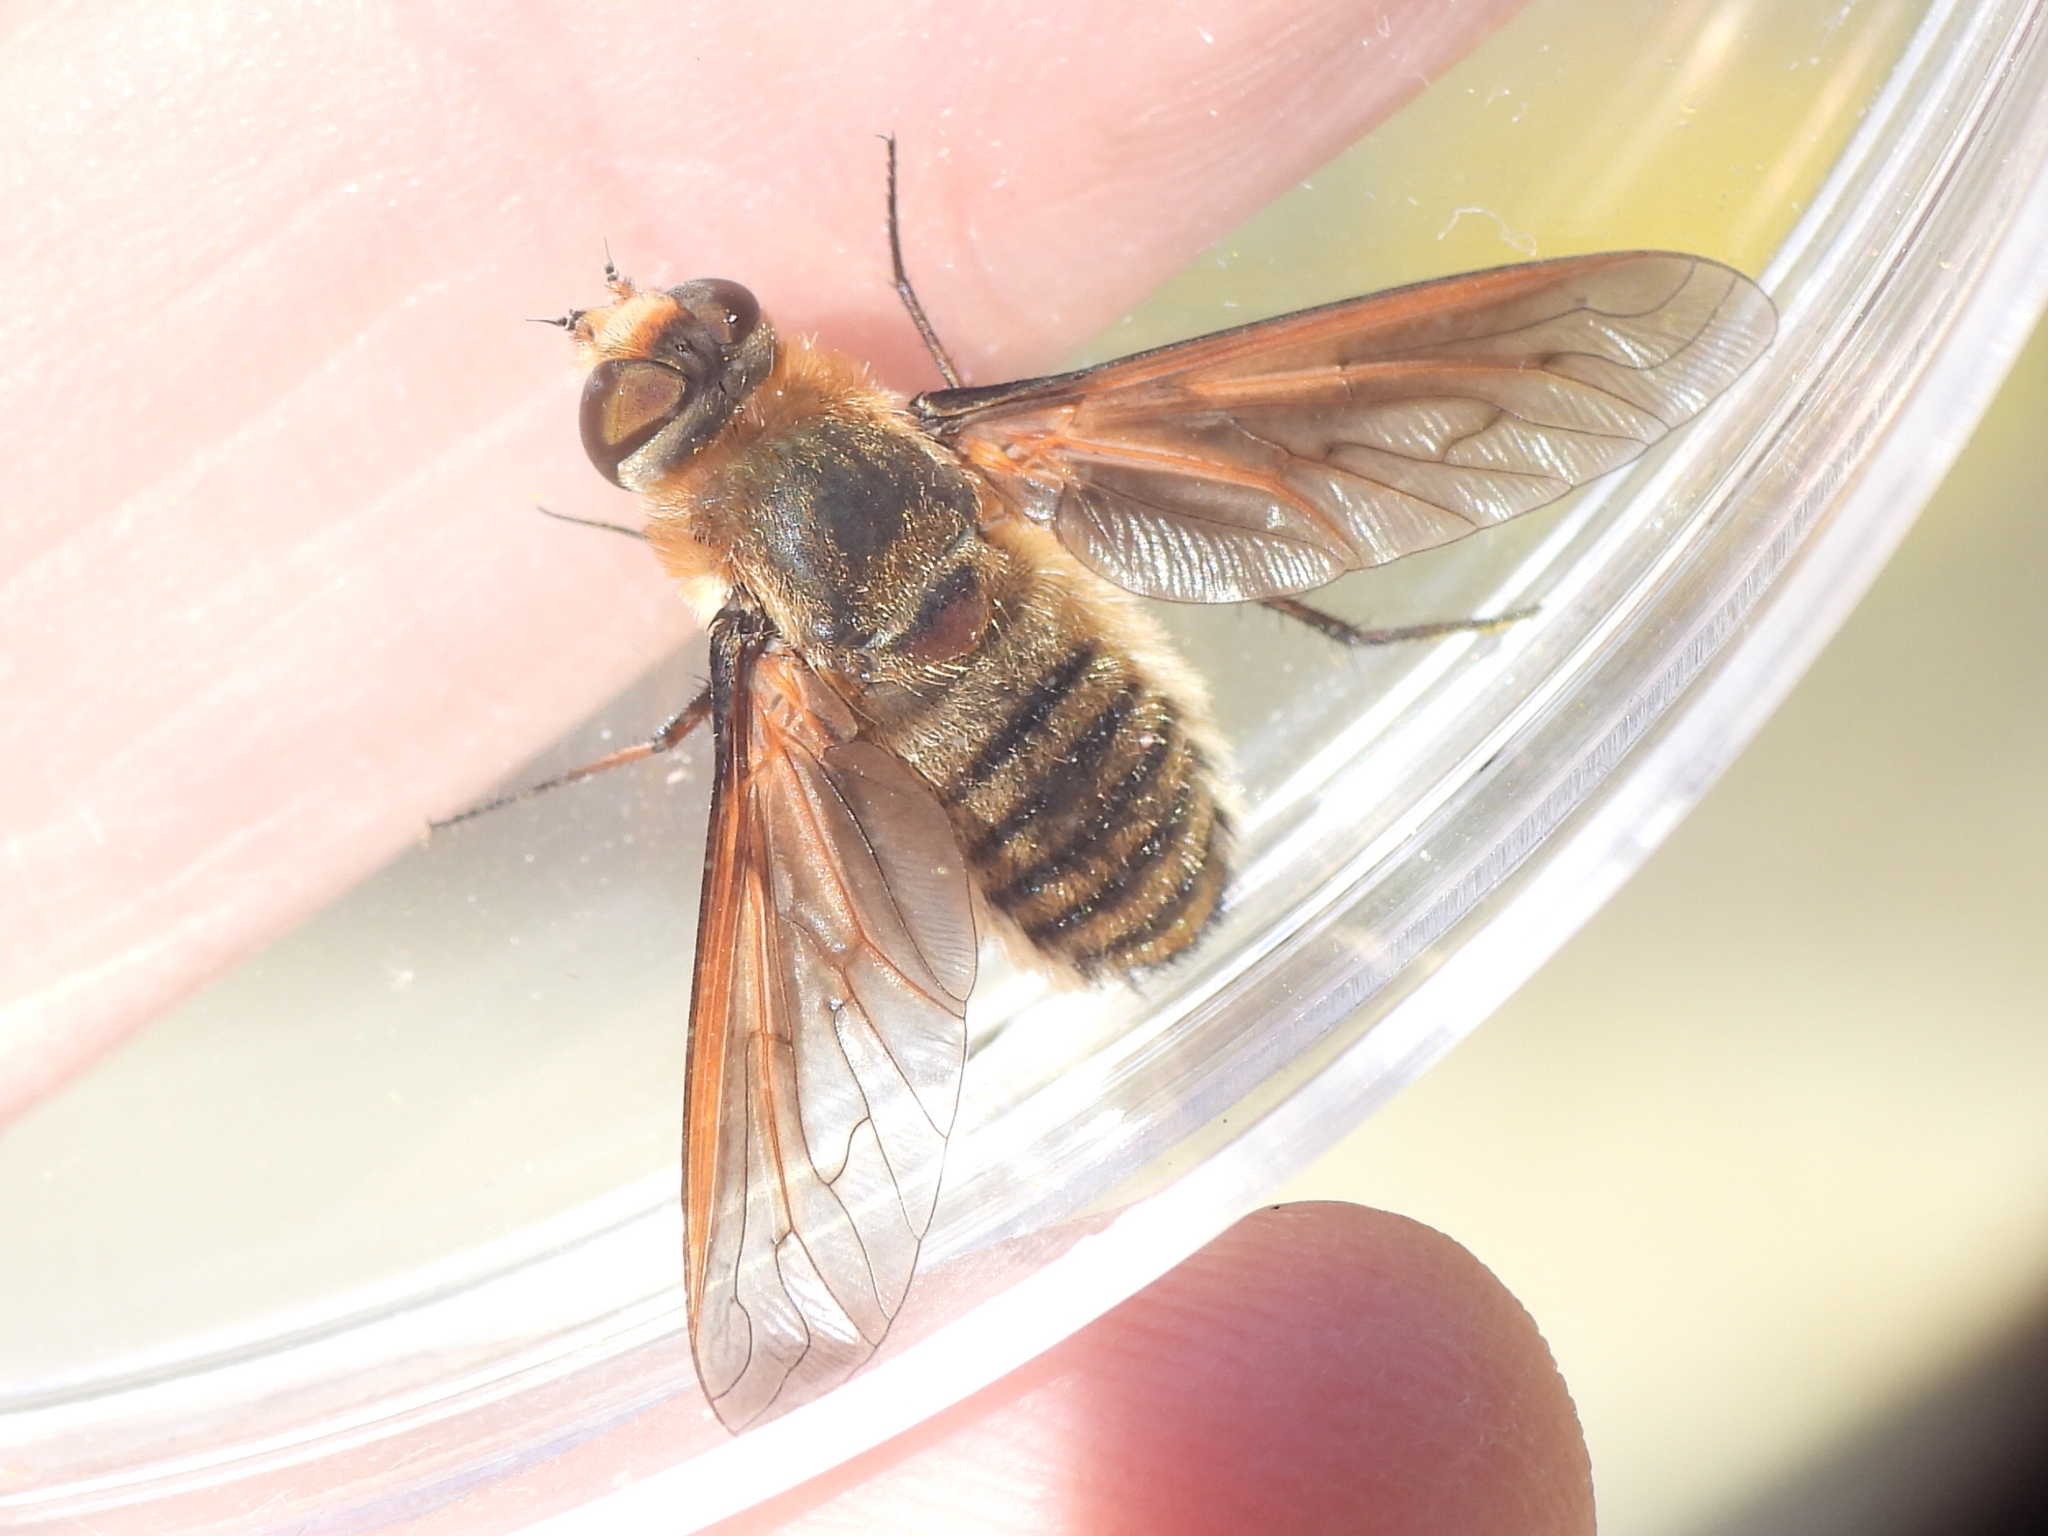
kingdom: Animalia
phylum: Arthropoda
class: Insecta
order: Diptera
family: Bombyliidae
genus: Poecilanthrax
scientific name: Poecilanthrax lucifer
